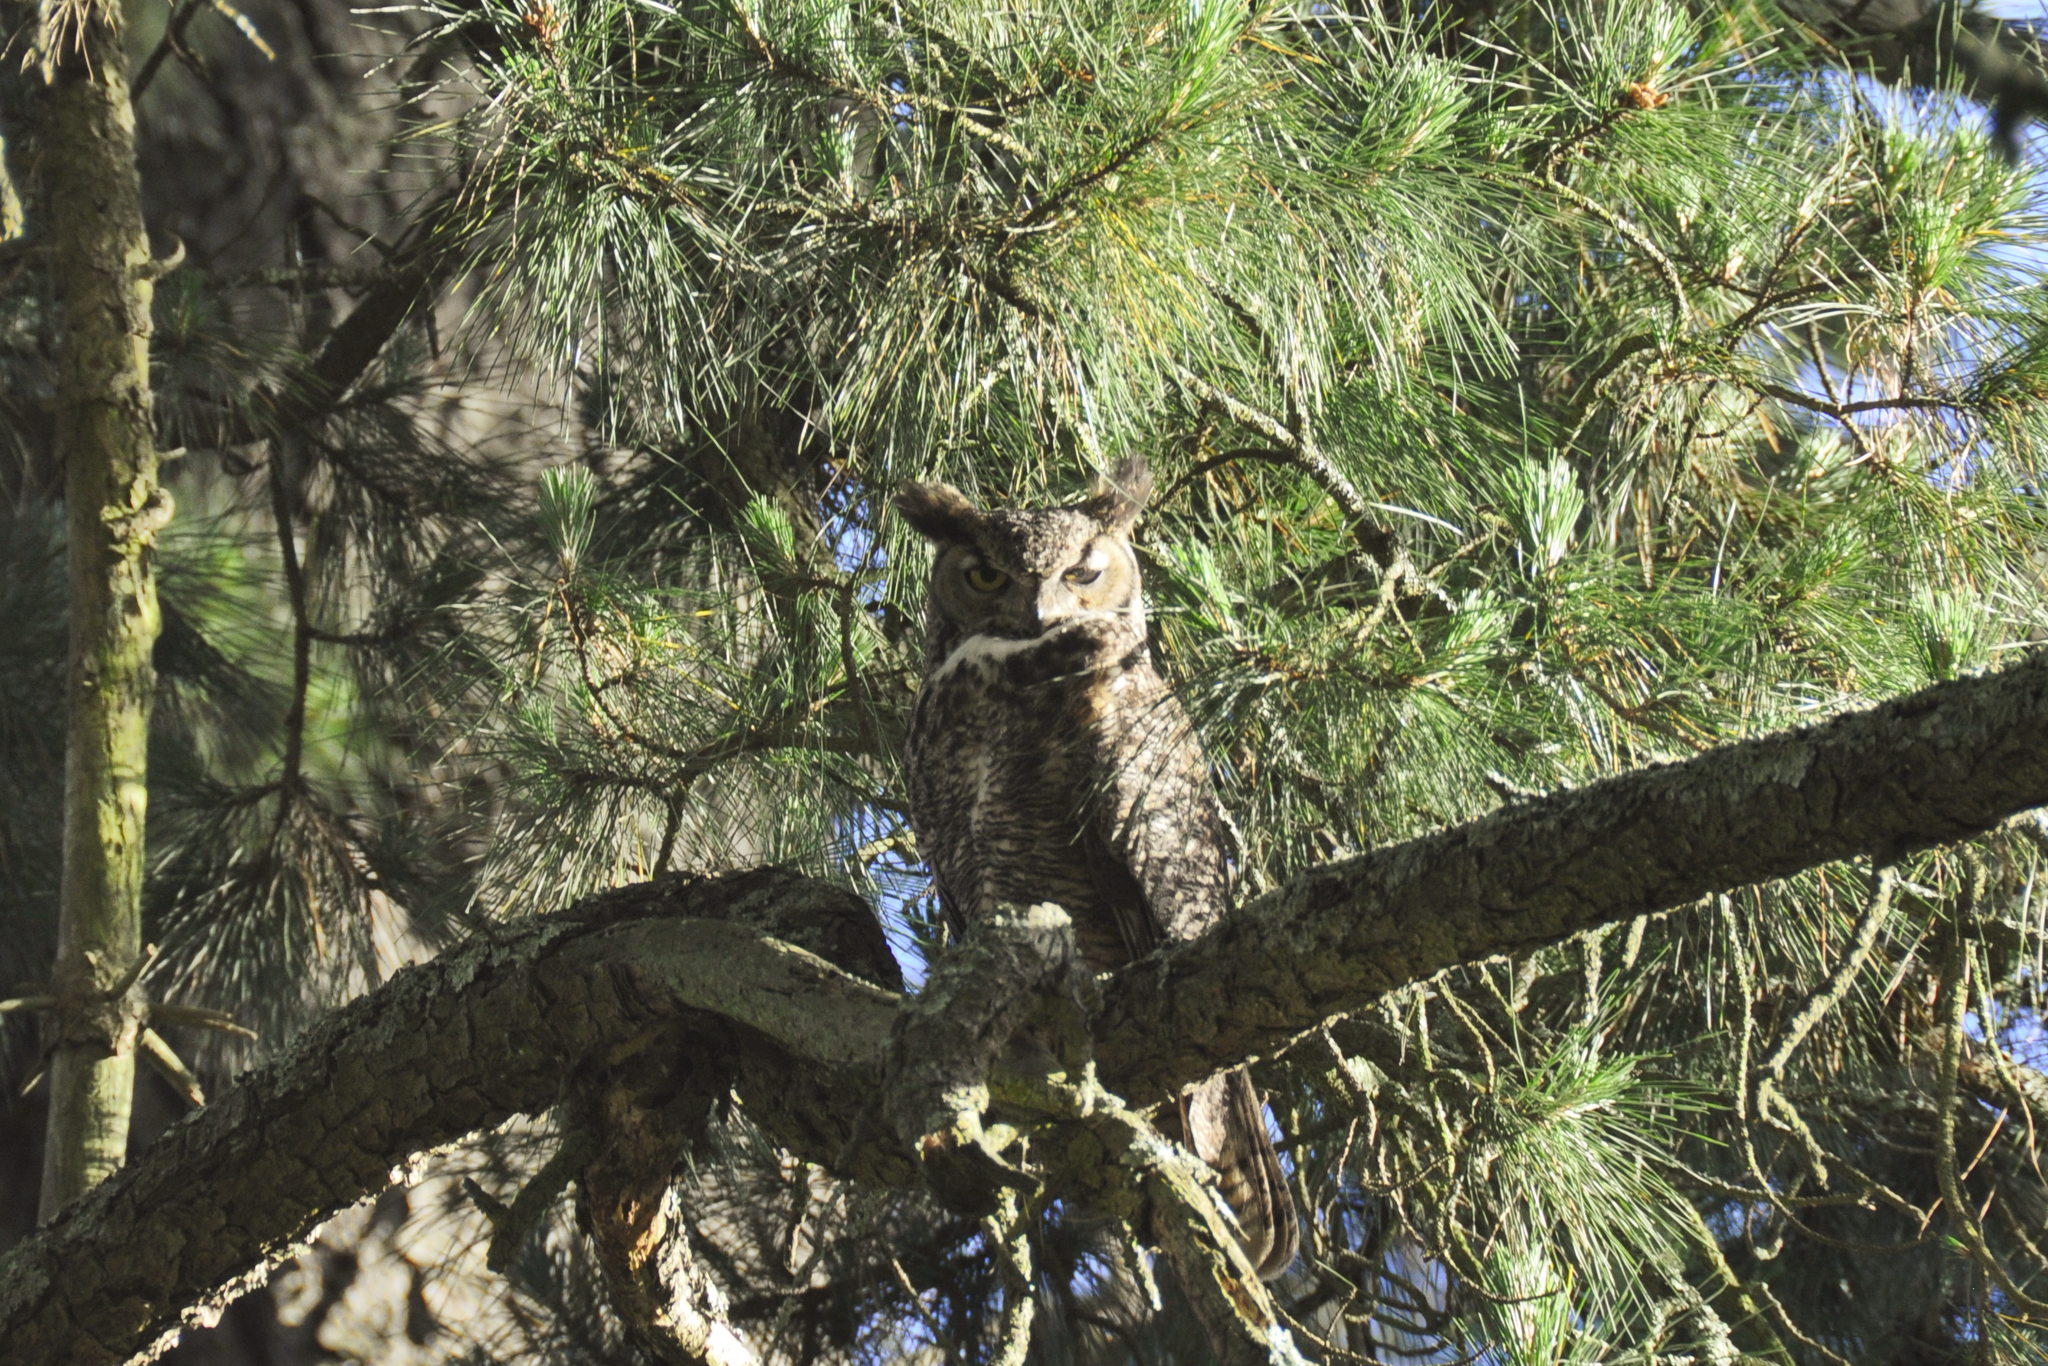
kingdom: Animalia
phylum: Chordata
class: Aves
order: Strigiformes
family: Strigidae
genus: Bubo
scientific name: Bubo virginianus
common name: Great horned owl
